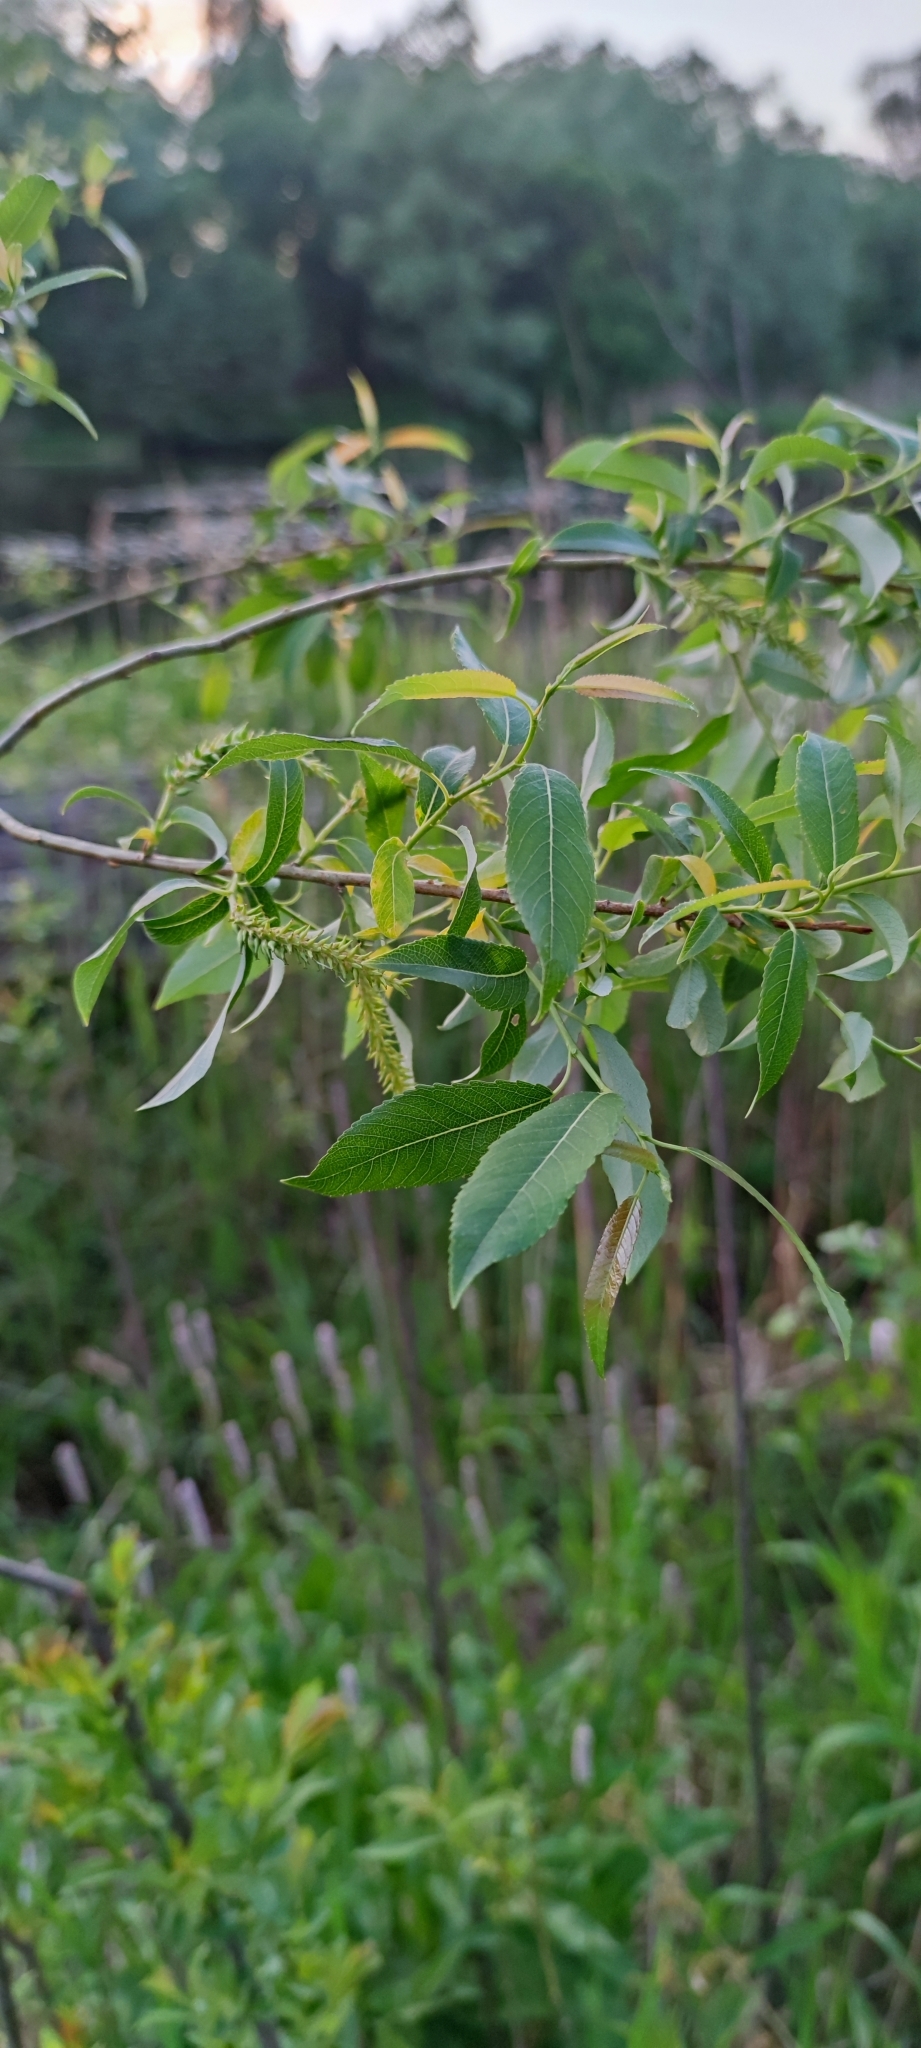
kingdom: Plantae
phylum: Tracheophyta
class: Magnoliopsida
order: Malpighiales
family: Salicaceae
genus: Salix
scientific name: Salix triandra
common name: Almond willow
